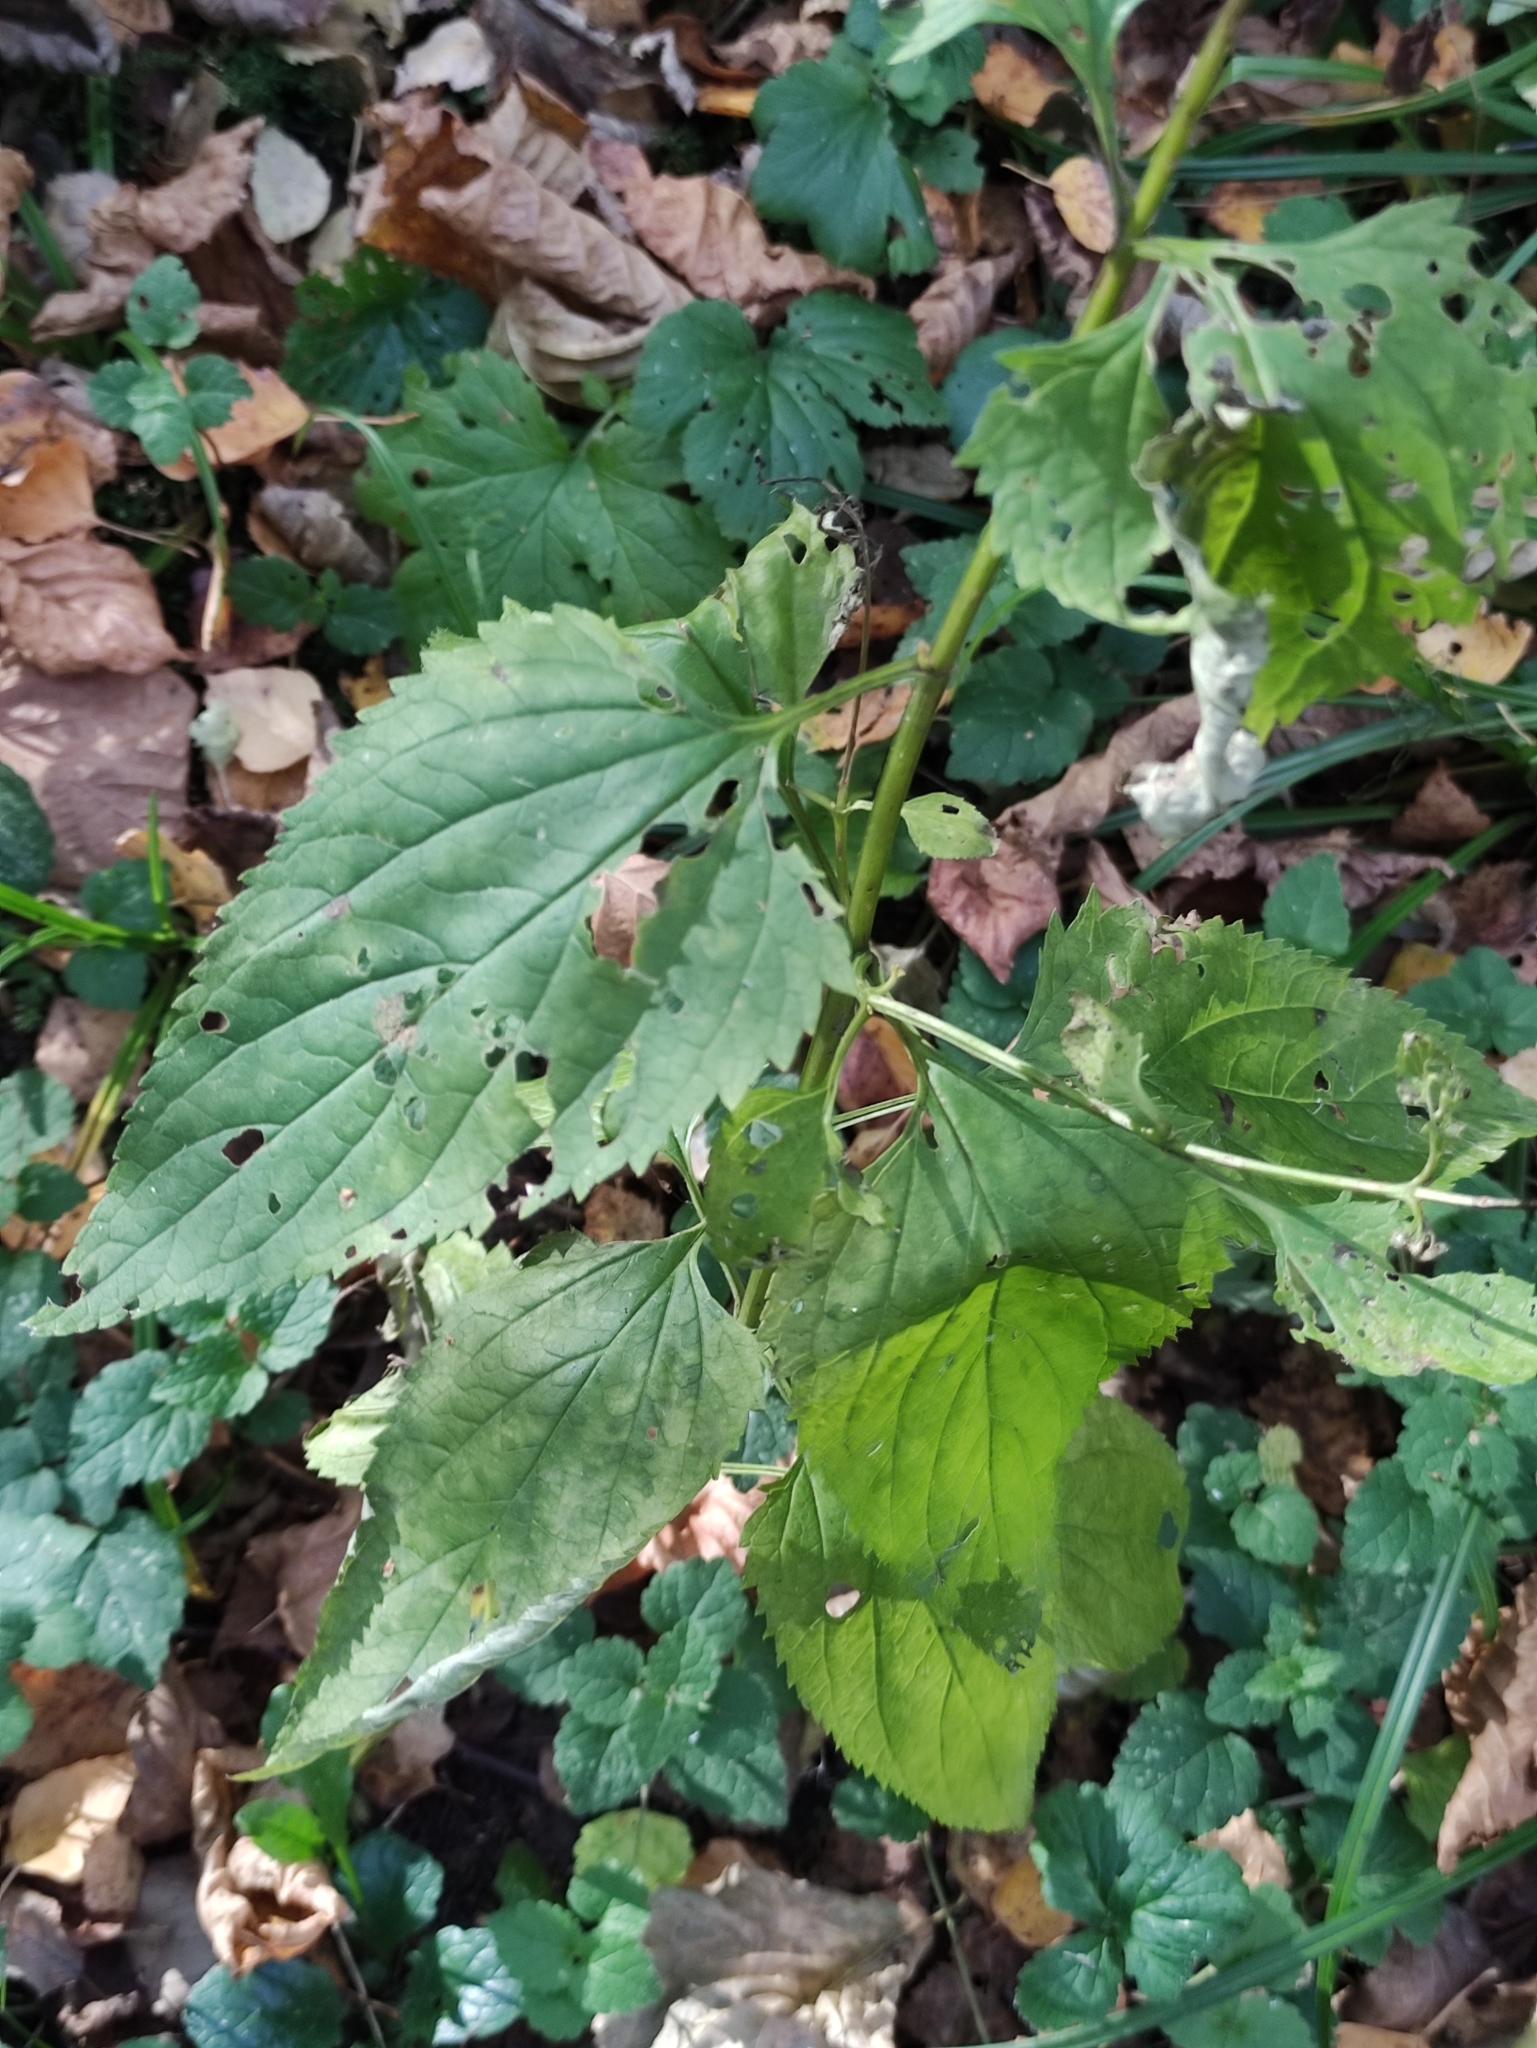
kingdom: Plantae
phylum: Tracheophyta
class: Magnoliopsida
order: Lamiales
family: Scrophulariaceae
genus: Scrophularia
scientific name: Scrophularia nodosa
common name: Common figwort
